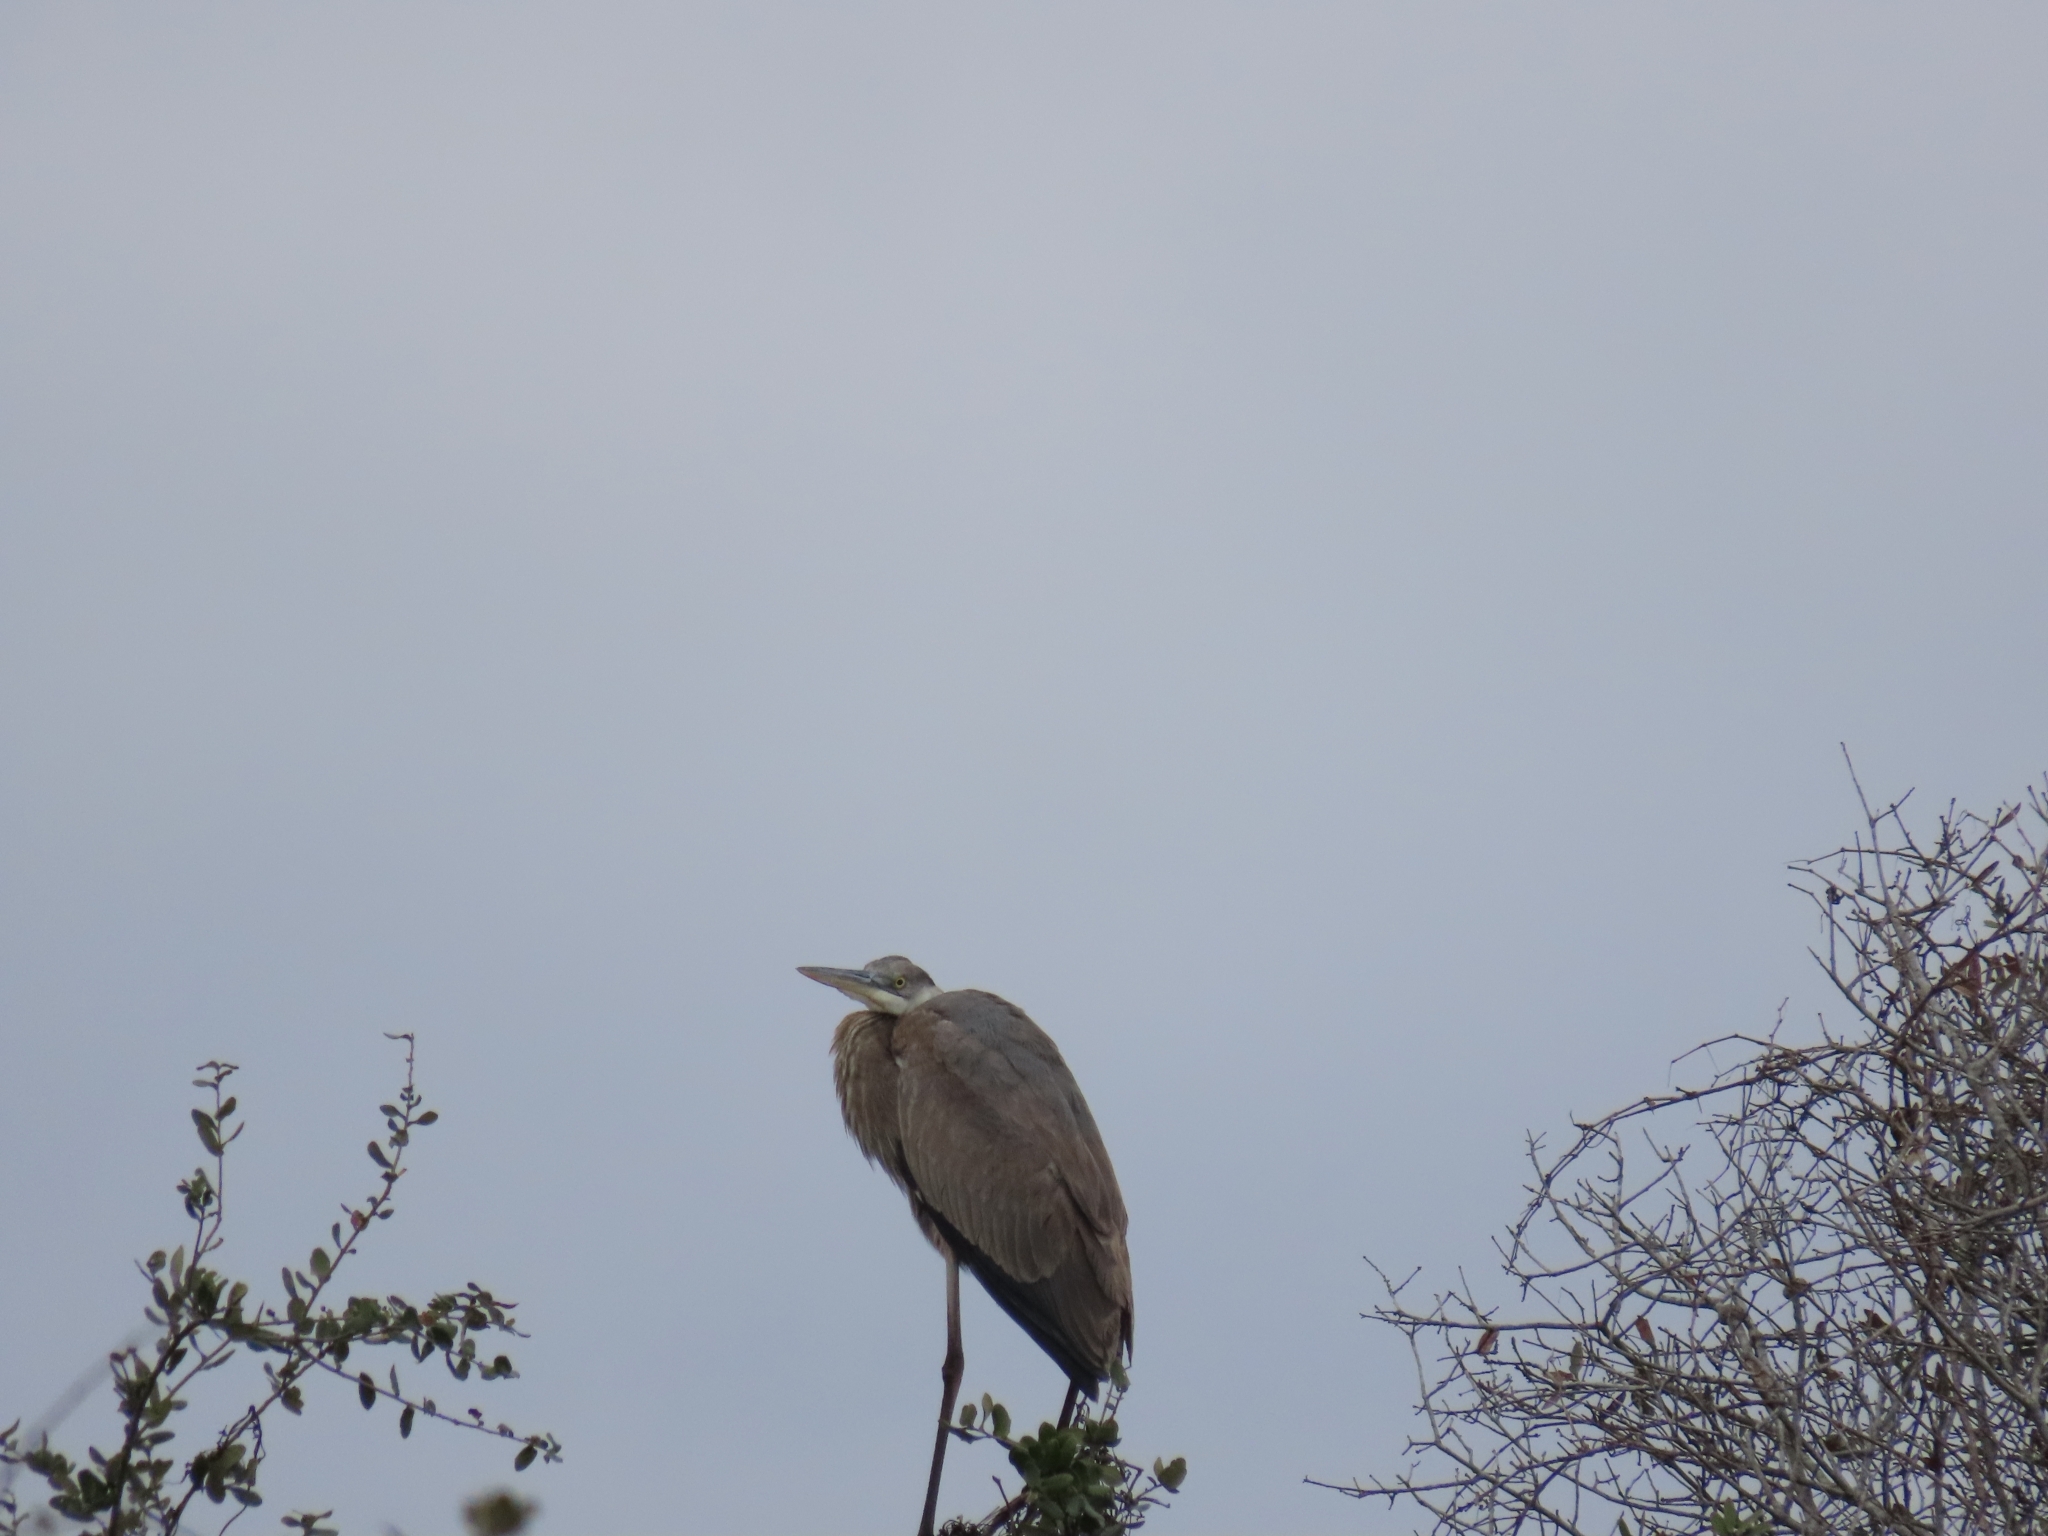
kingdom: Animalia
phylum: Chordata
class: Aves
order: Pelecaniformes
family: Ardeidae
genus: Ardea
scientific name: Ardea herodias
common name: Great blue heron
